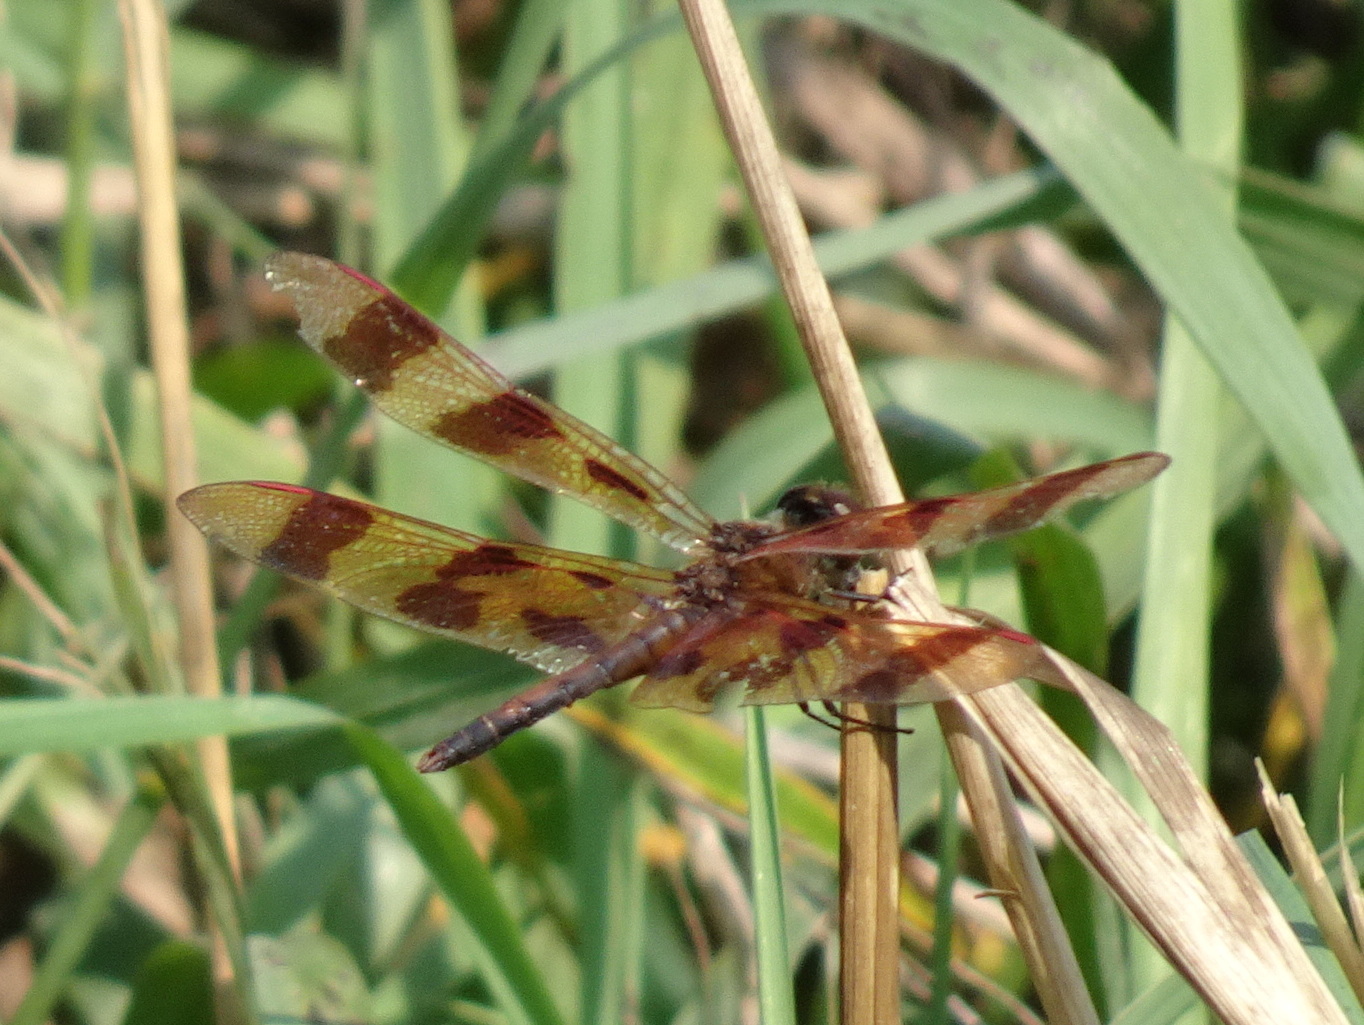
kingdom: Animalia
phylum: Arthropoda
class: Insecta
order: Odonata
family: Libellulidae
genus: Celithemis
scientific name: Celithemis eponina
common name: Halloween pennant
